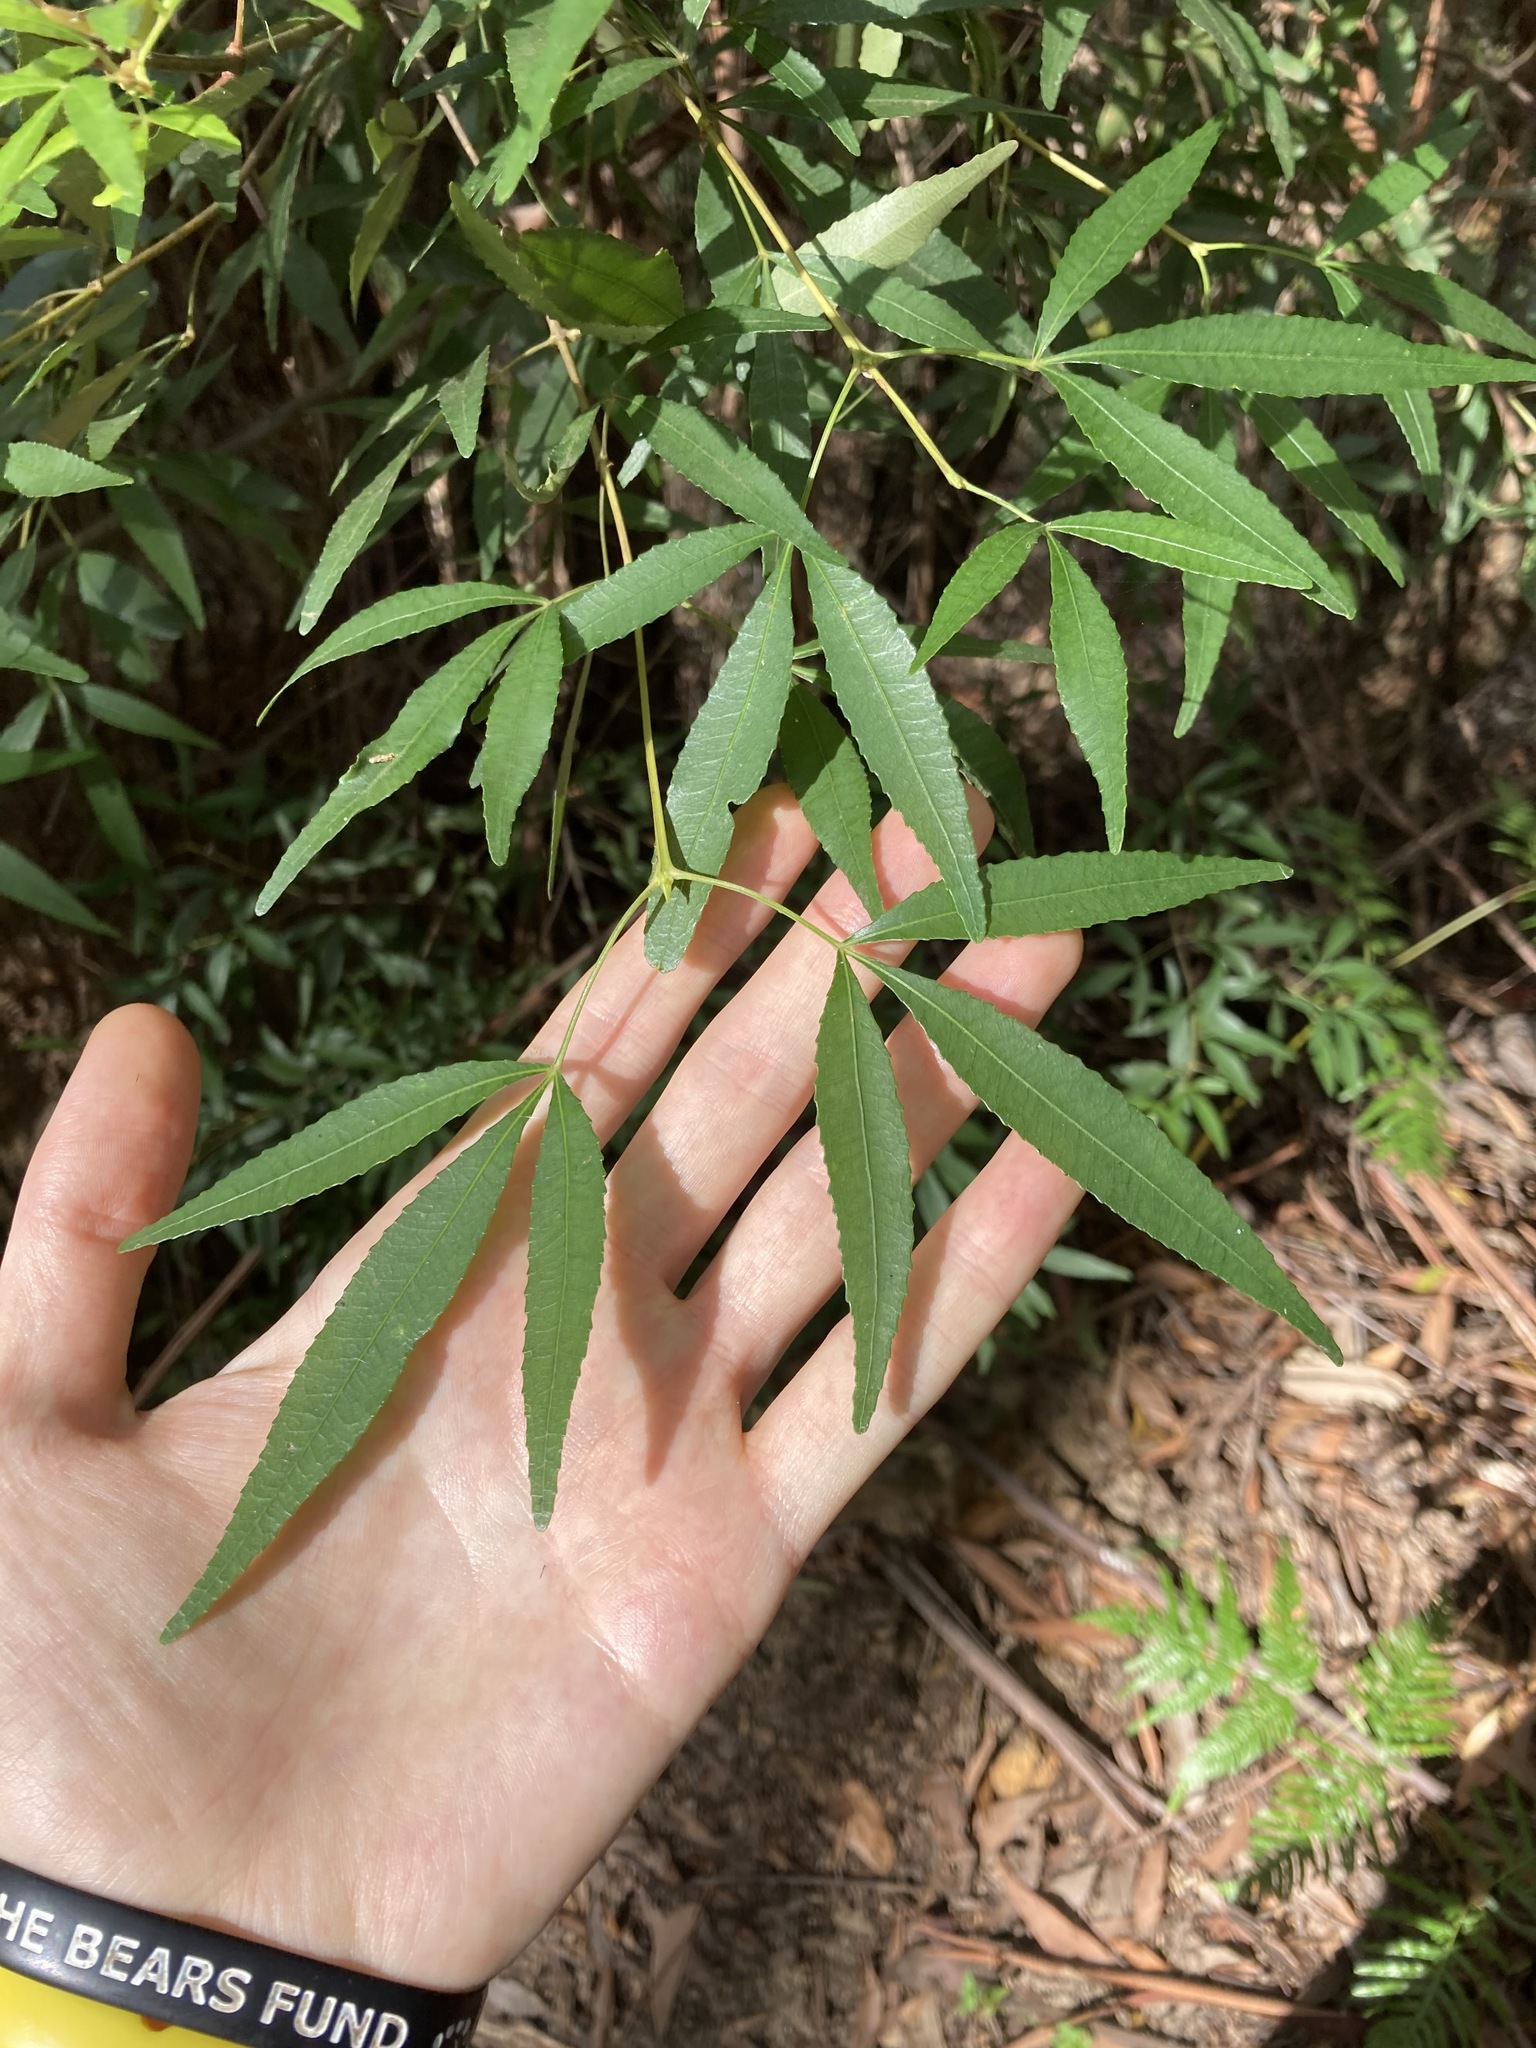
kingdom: Plantae
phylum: Tracheophyta
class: Magnoliopsida
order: Oxalidales
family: Cunoniaceae
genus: Ceratopetalum
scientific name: Ceratopetalum gummiferum
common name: Christmasbush
